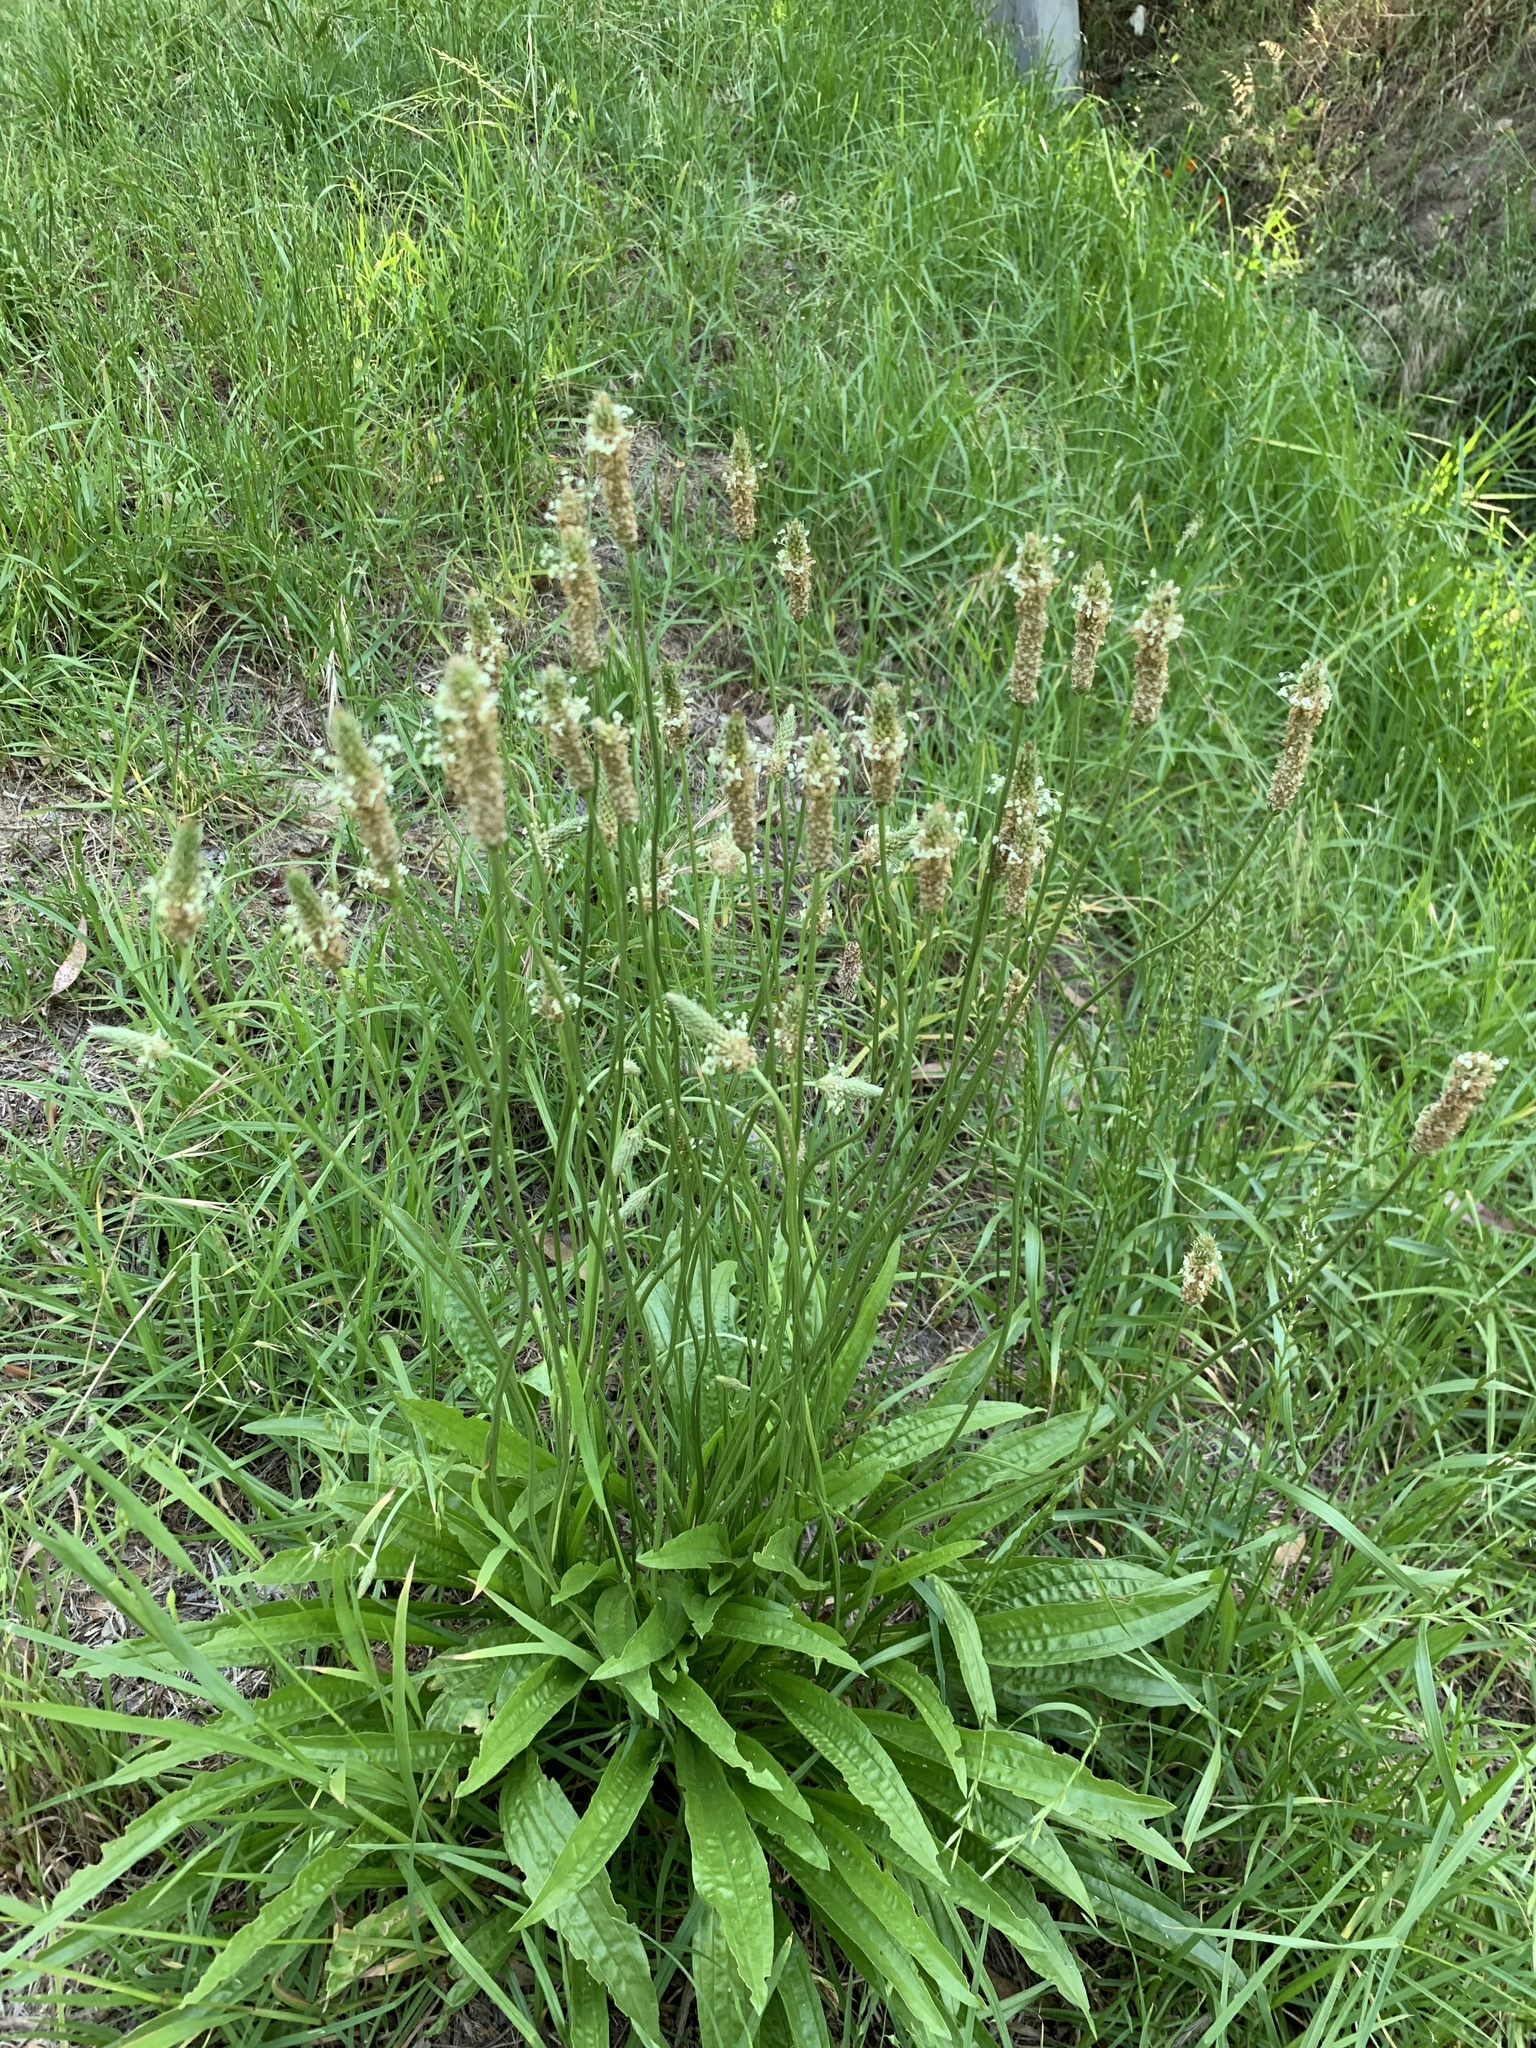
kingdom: Plantae
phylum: Tracheophyta
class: Magnoliopsida
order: Lamiales
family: Plantaginaceae
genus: Plantago
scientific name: Plantago lanceolata
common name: Ribwort plantain
